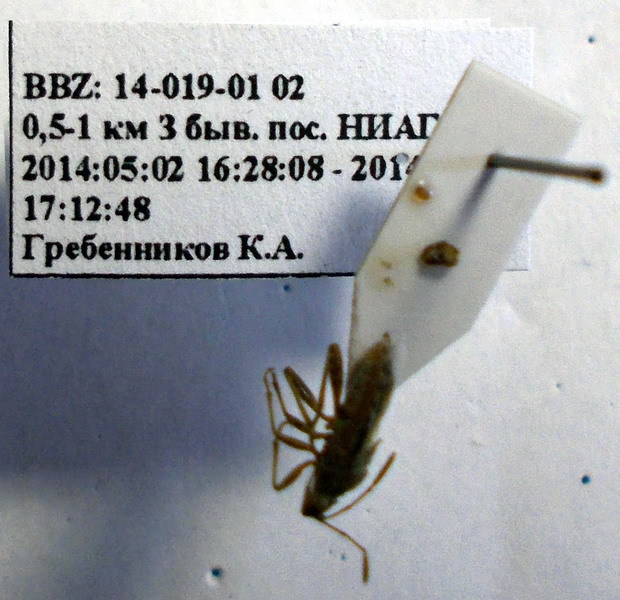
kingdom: Animalia
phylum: Arthropoda
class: Insecta
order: Hemiptera
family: Rhopalidae
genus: Stictopleurus
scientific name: Stictopleurus subtomentosus
